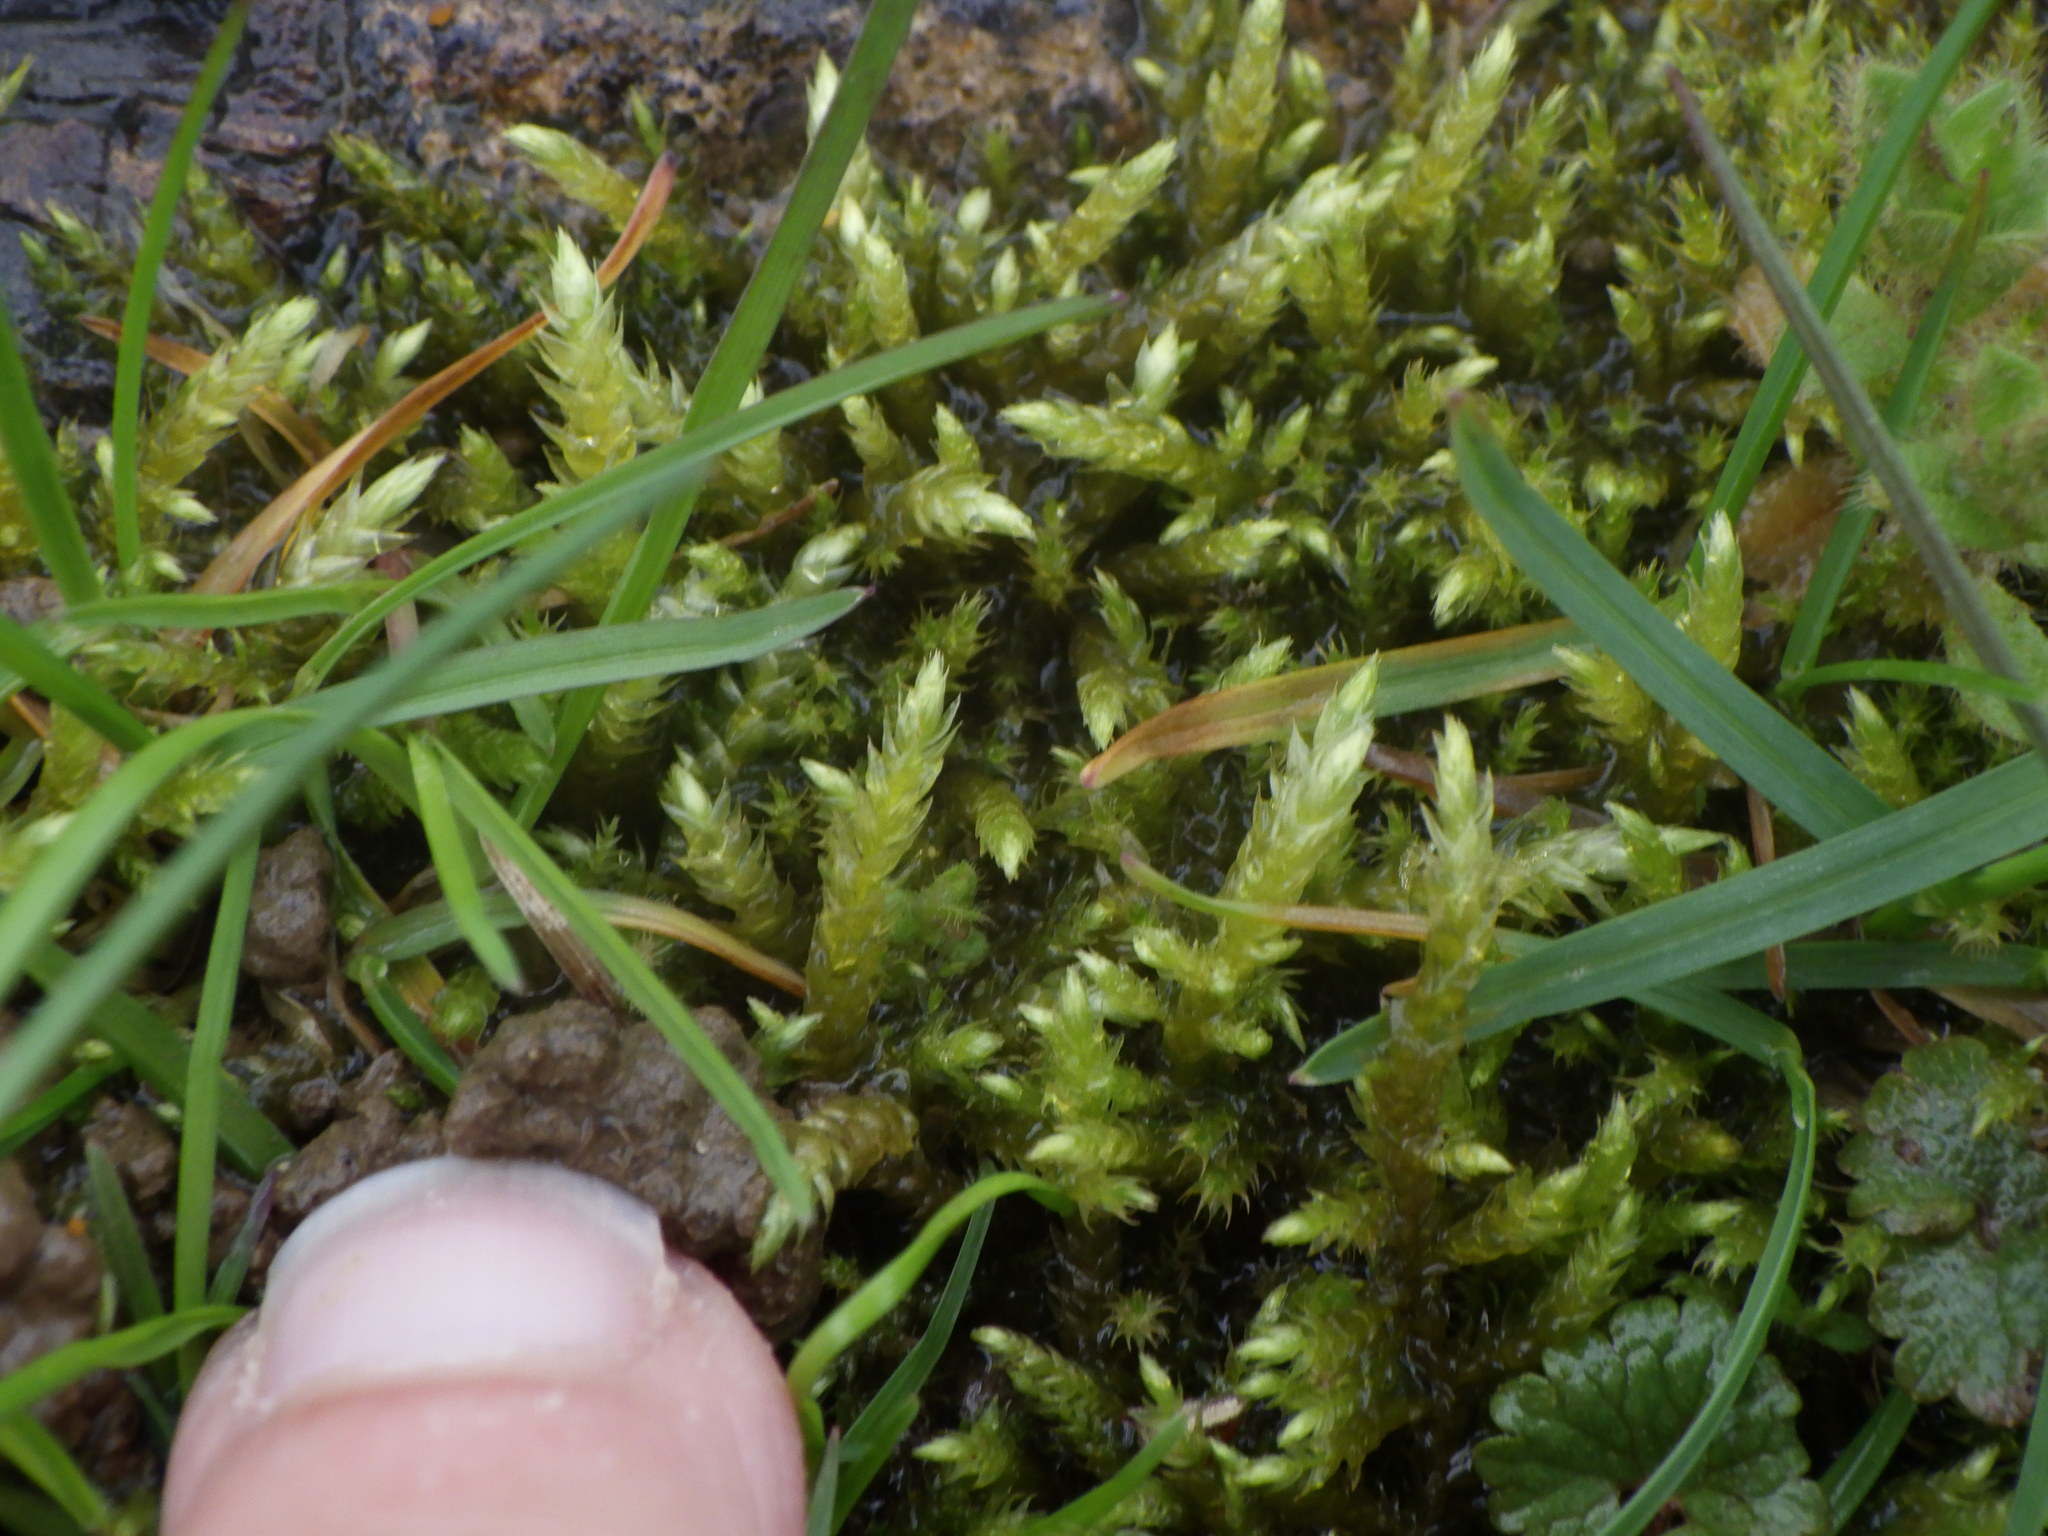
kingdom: Plantae
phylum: Bryophyta
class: Bryopsida
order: Hypnales
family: Entodontaceae
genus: Entodon
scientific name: Entodon seductrix
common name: Round-stemmed entodon moss
